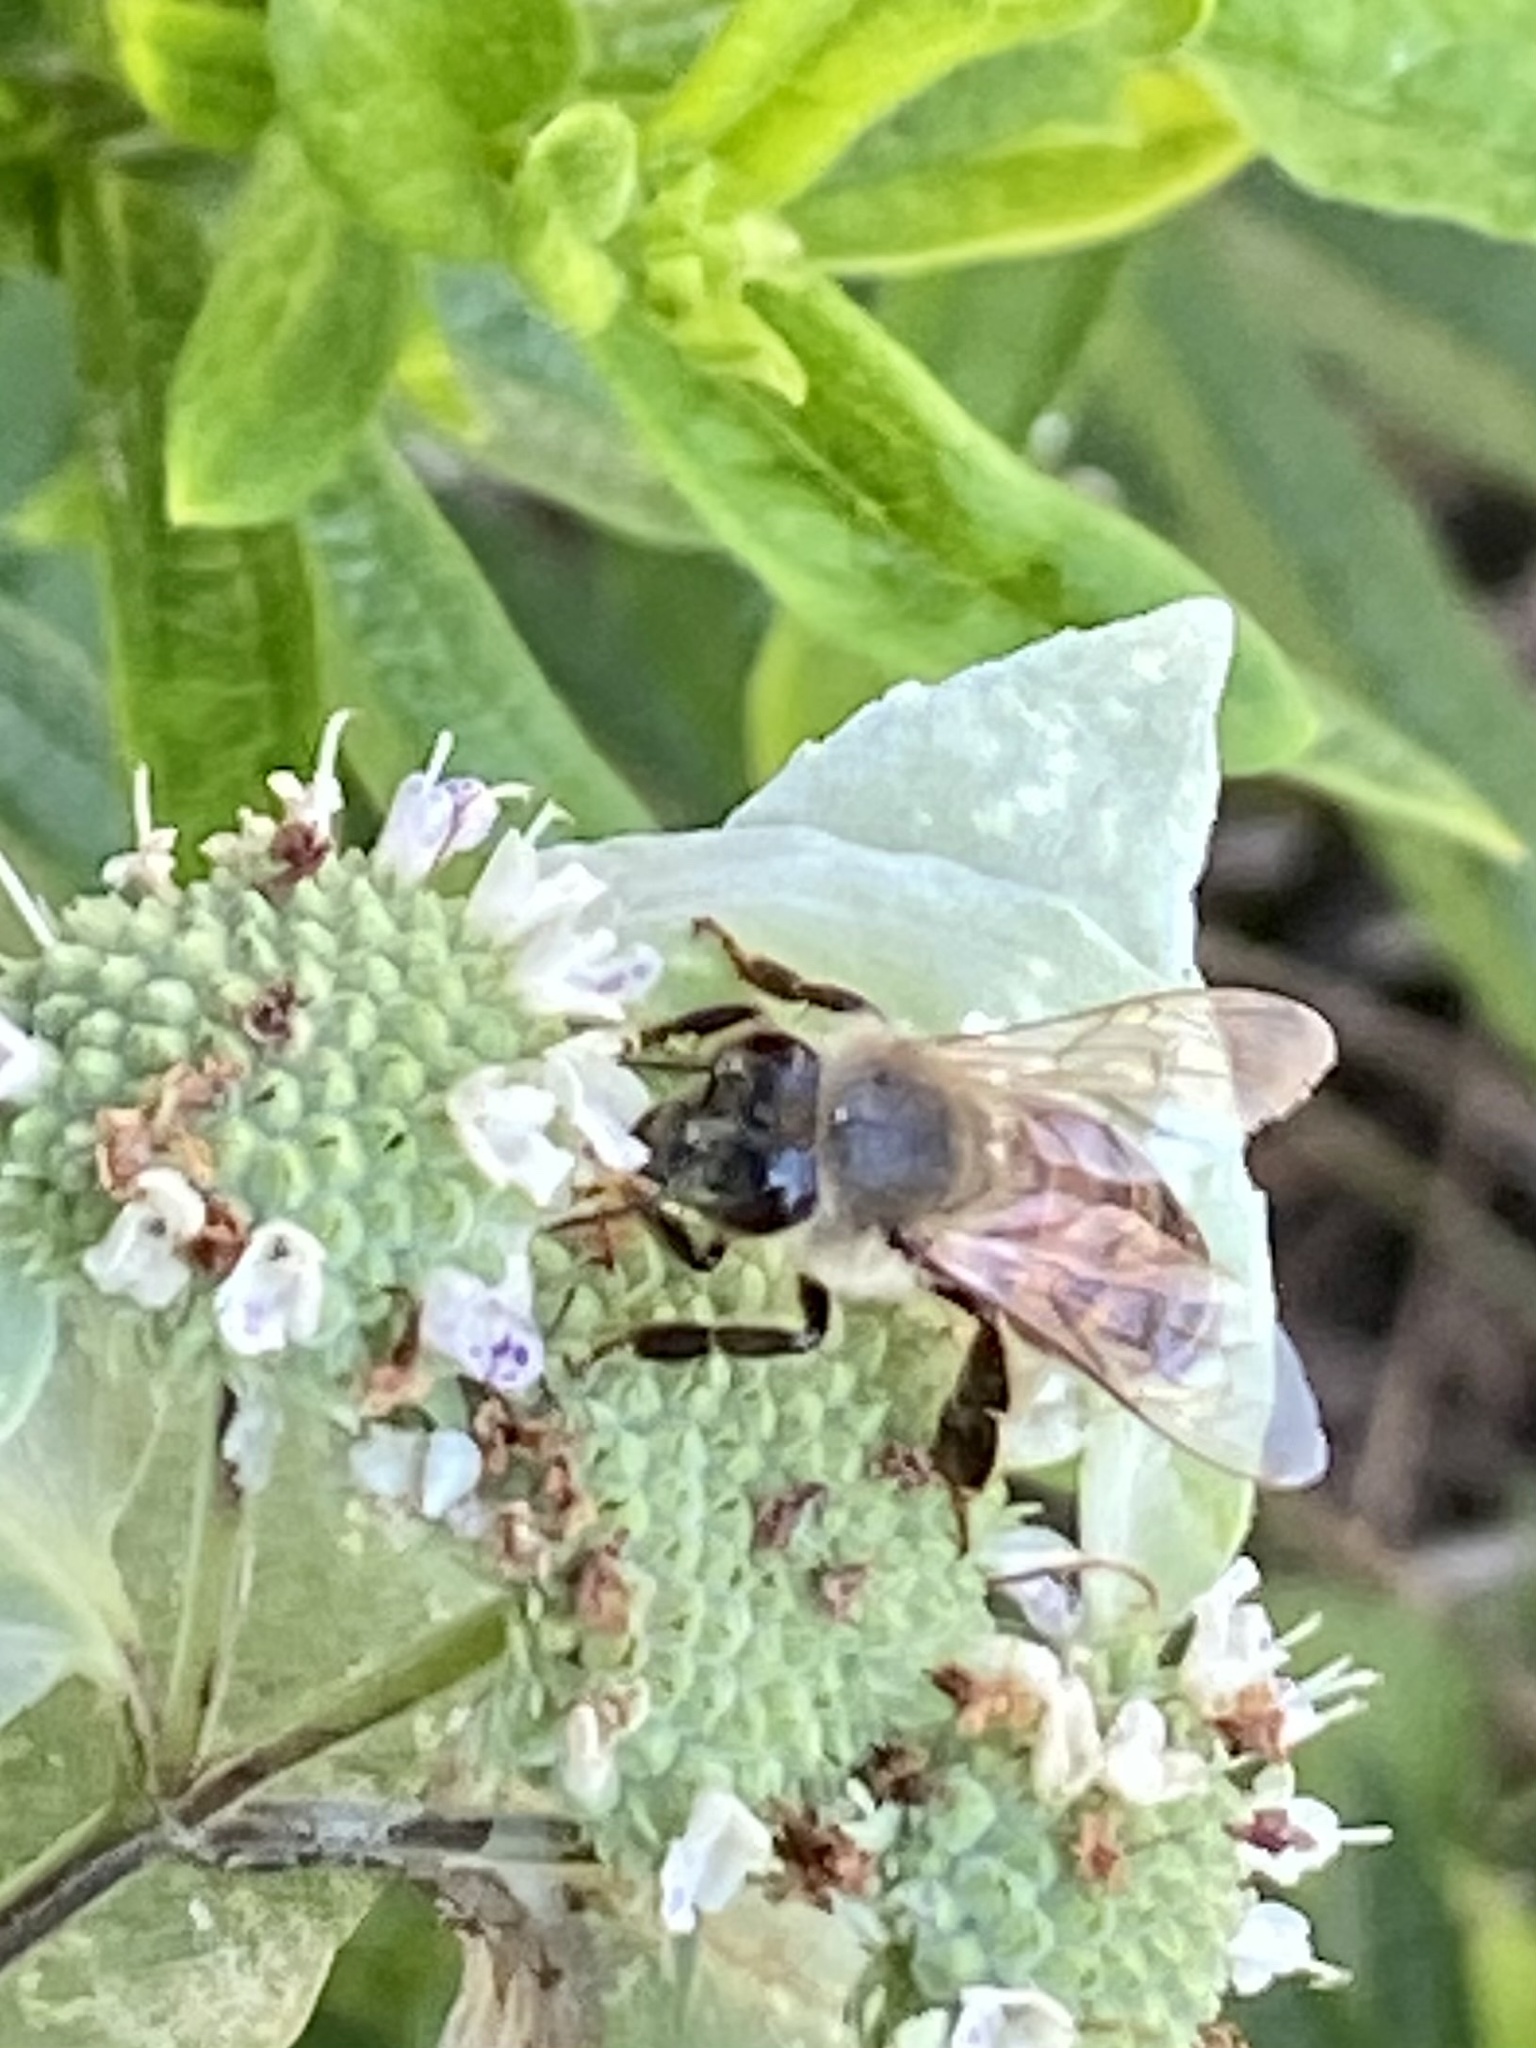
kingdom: Animalia
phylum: Arthropoda
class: Insecta
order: Hymenoptera
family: Apidae
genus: Apis
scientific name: Apis mellifera
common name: Honey bee
